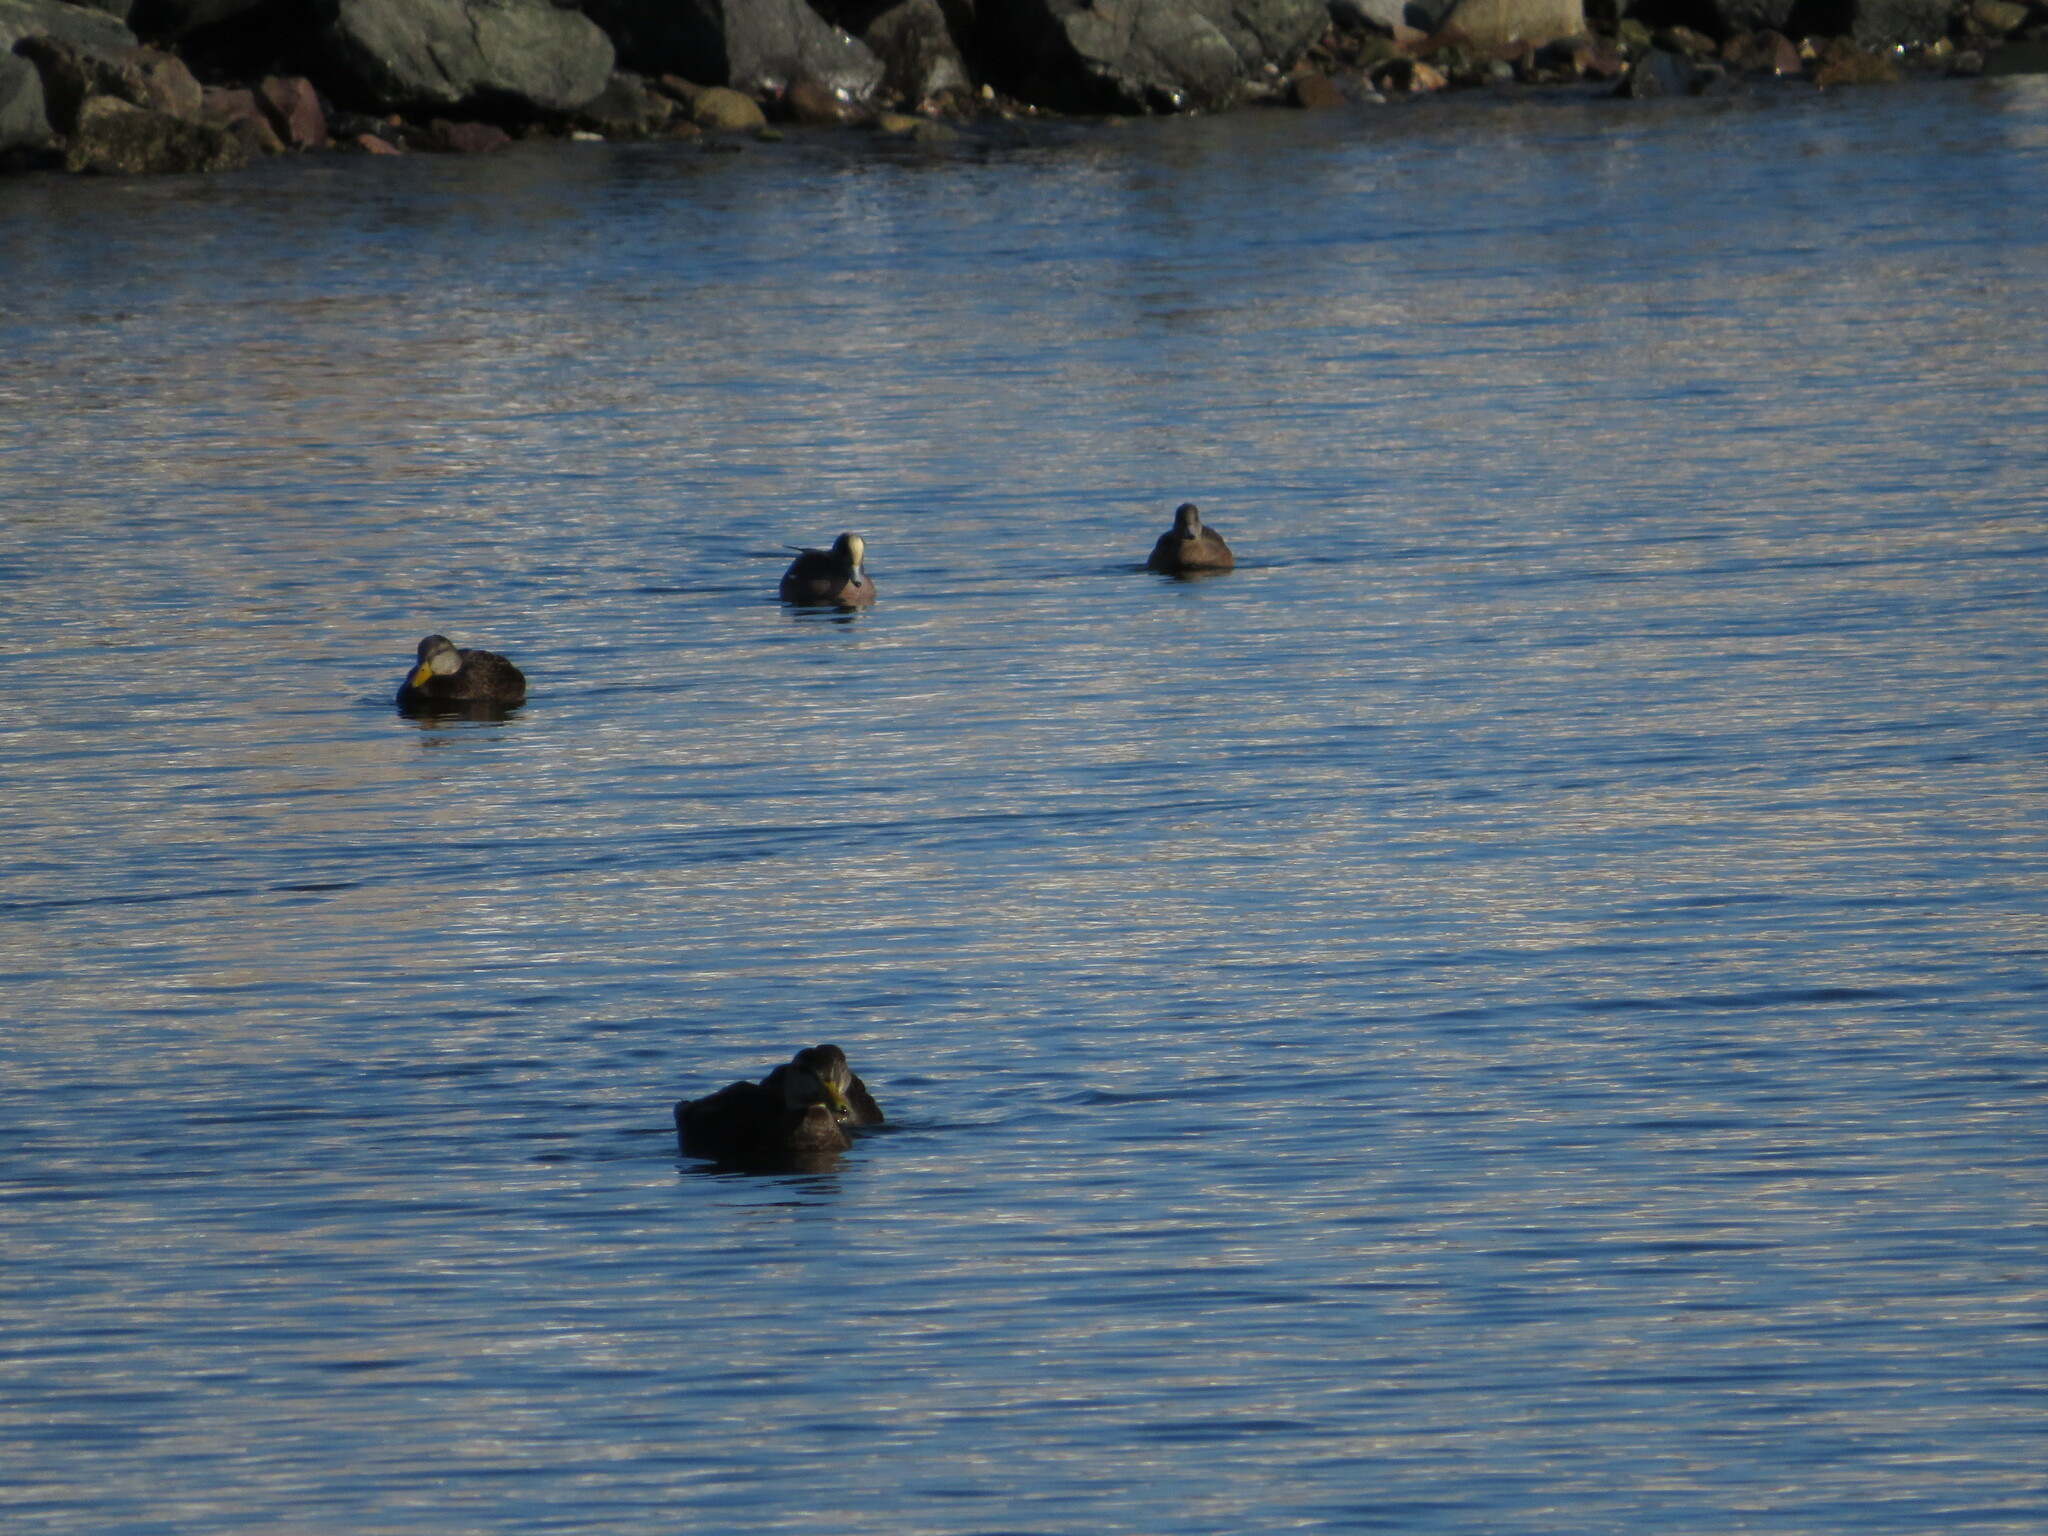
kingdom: Animalia
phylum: Chordata
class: Aves
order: Anseriformes
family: Anatidae
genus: Anas
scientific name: Anas rubripes
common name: American black duck
